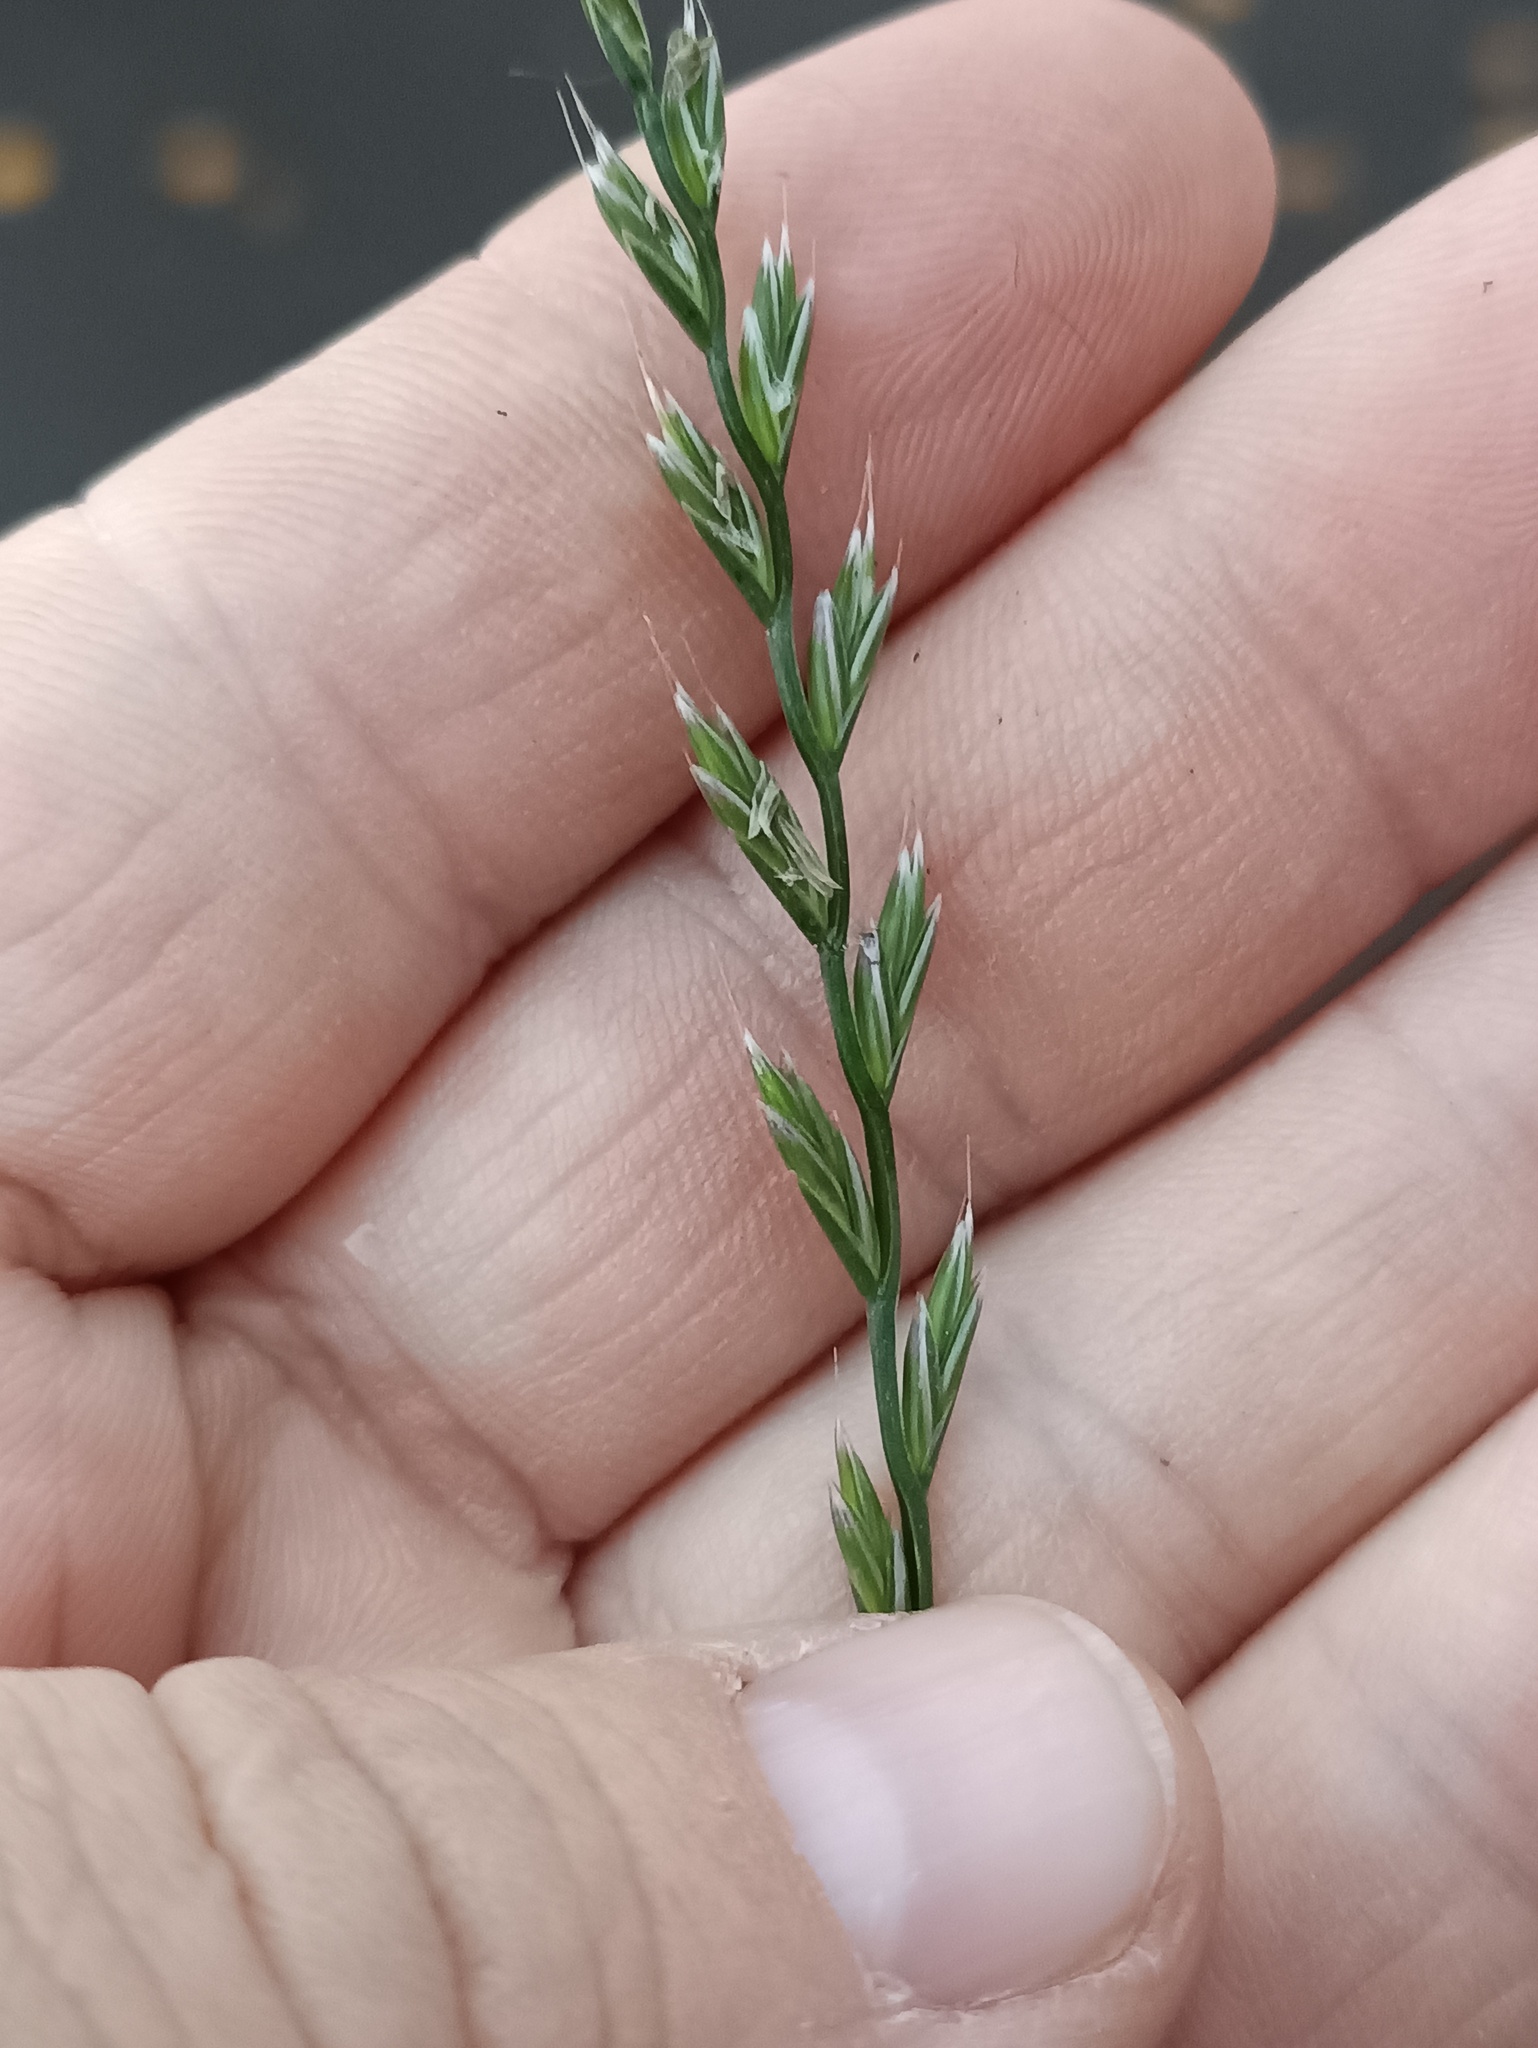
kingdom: Plantae
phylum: Tracheophyta
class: Liliopsida
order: Poales
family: Poaceae
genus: Lolium
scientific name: Lolium multiflorum
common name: Annual ryegrass
